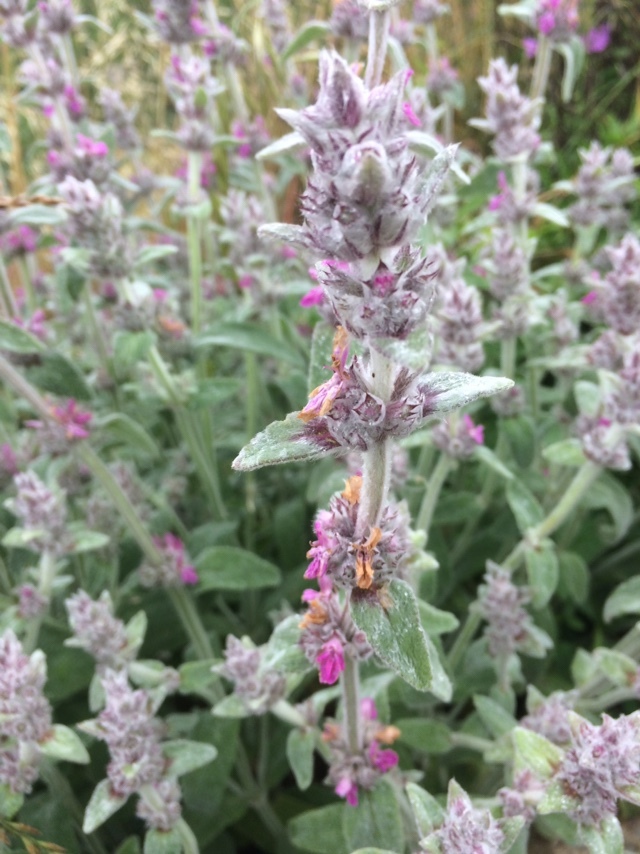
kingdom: Plantae
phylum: Tracheophyta
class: Magnoliopsida
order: Lamiales
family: Lamiaceae
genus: Stachys
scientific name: Stachys cretica
